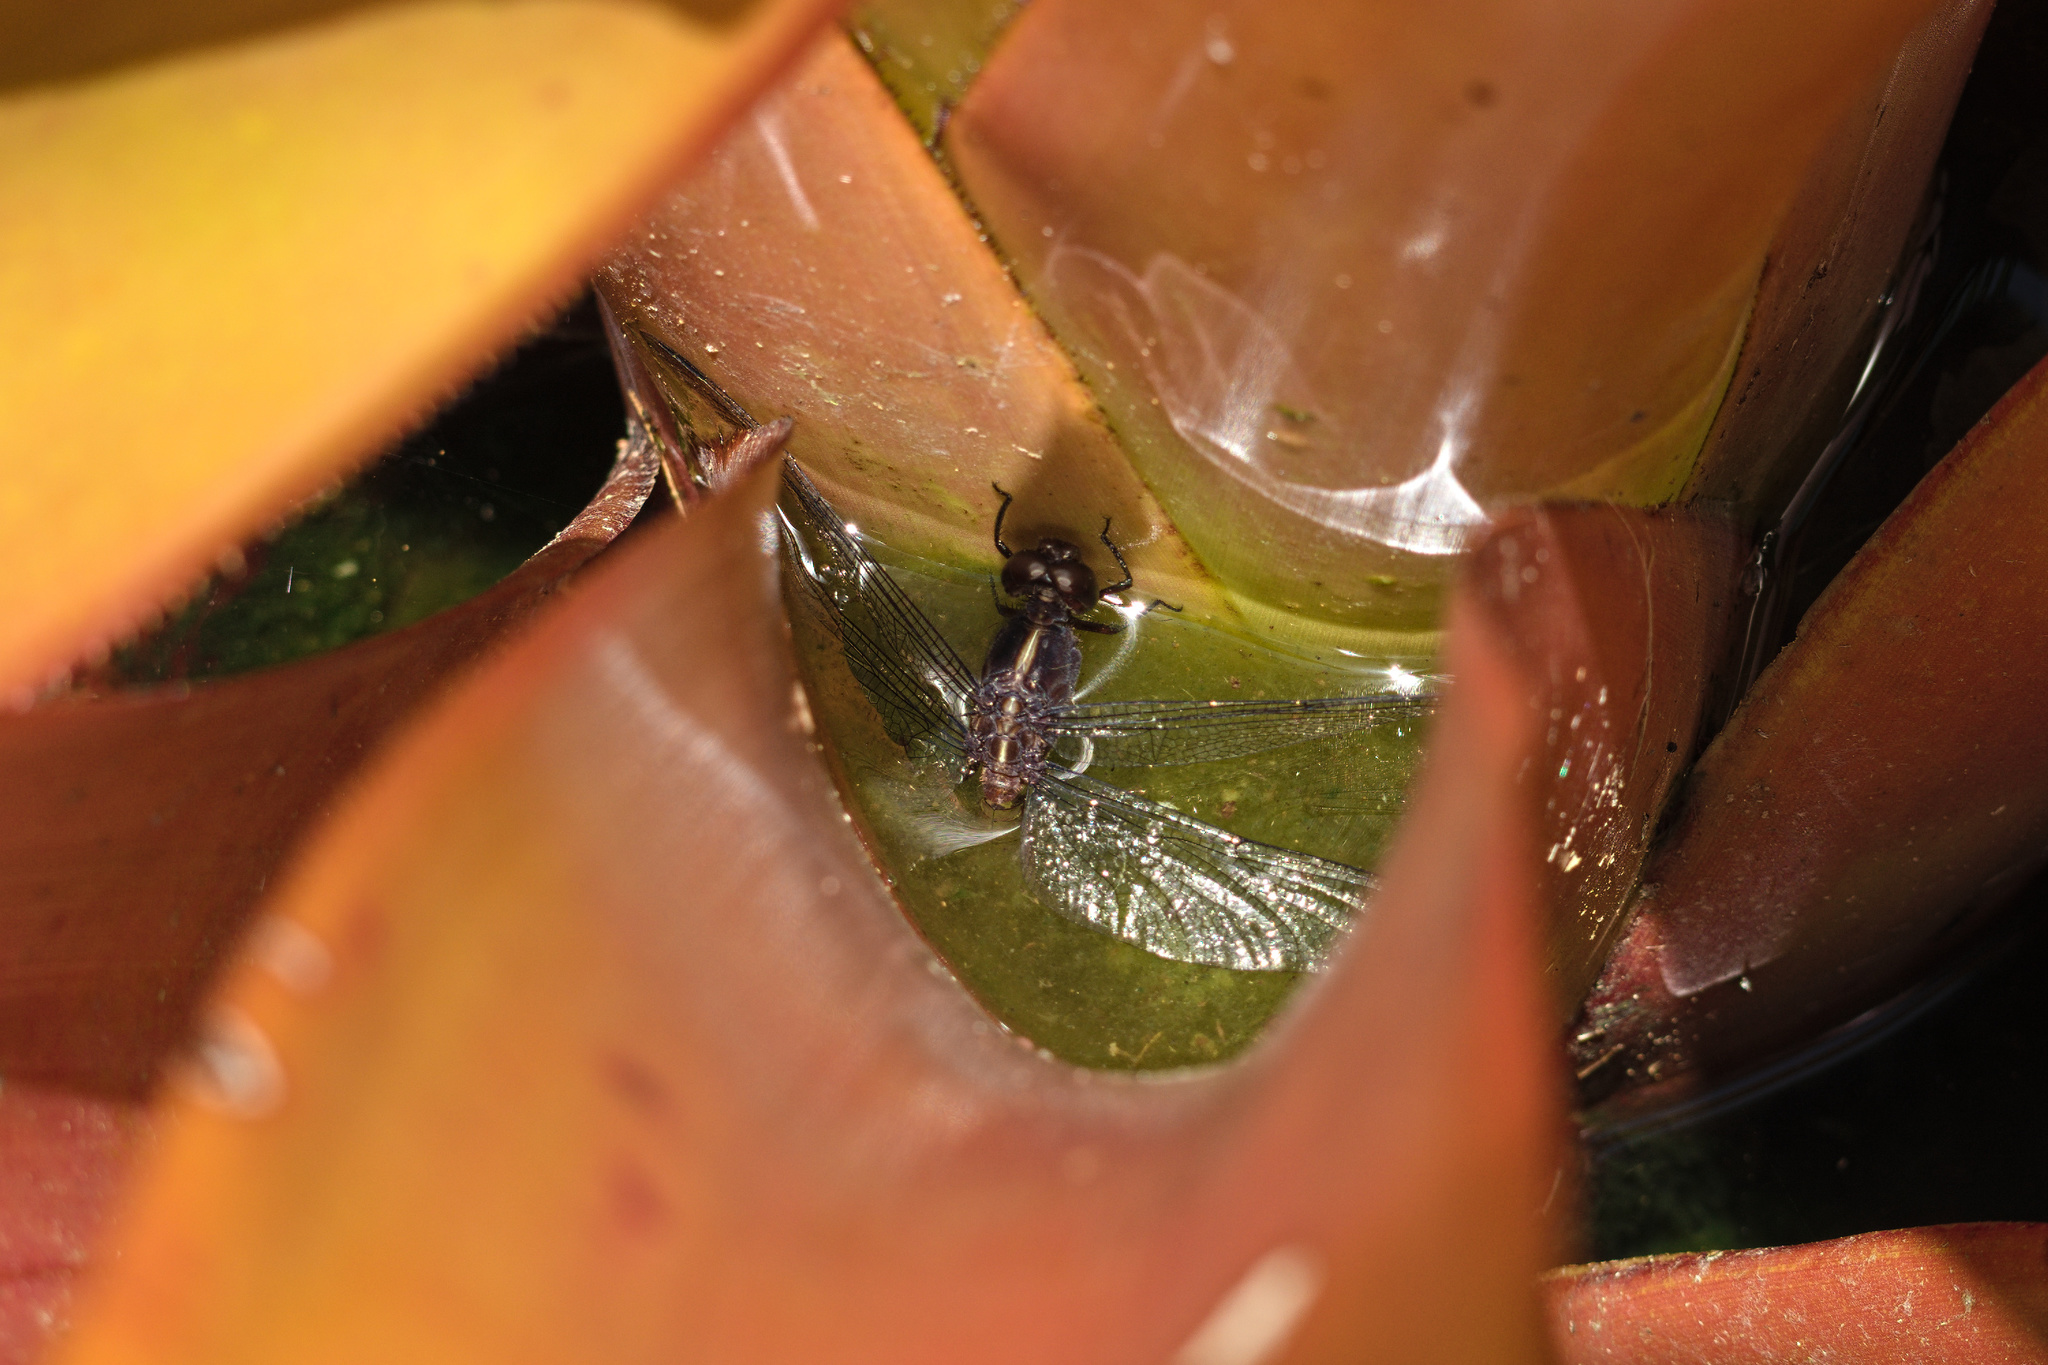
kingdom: Animalia
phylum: Arthropoda
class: Insecta
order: Odonata
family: Libellulidae
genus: Erythrodiplax
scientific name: Erythrodiplax laselva
